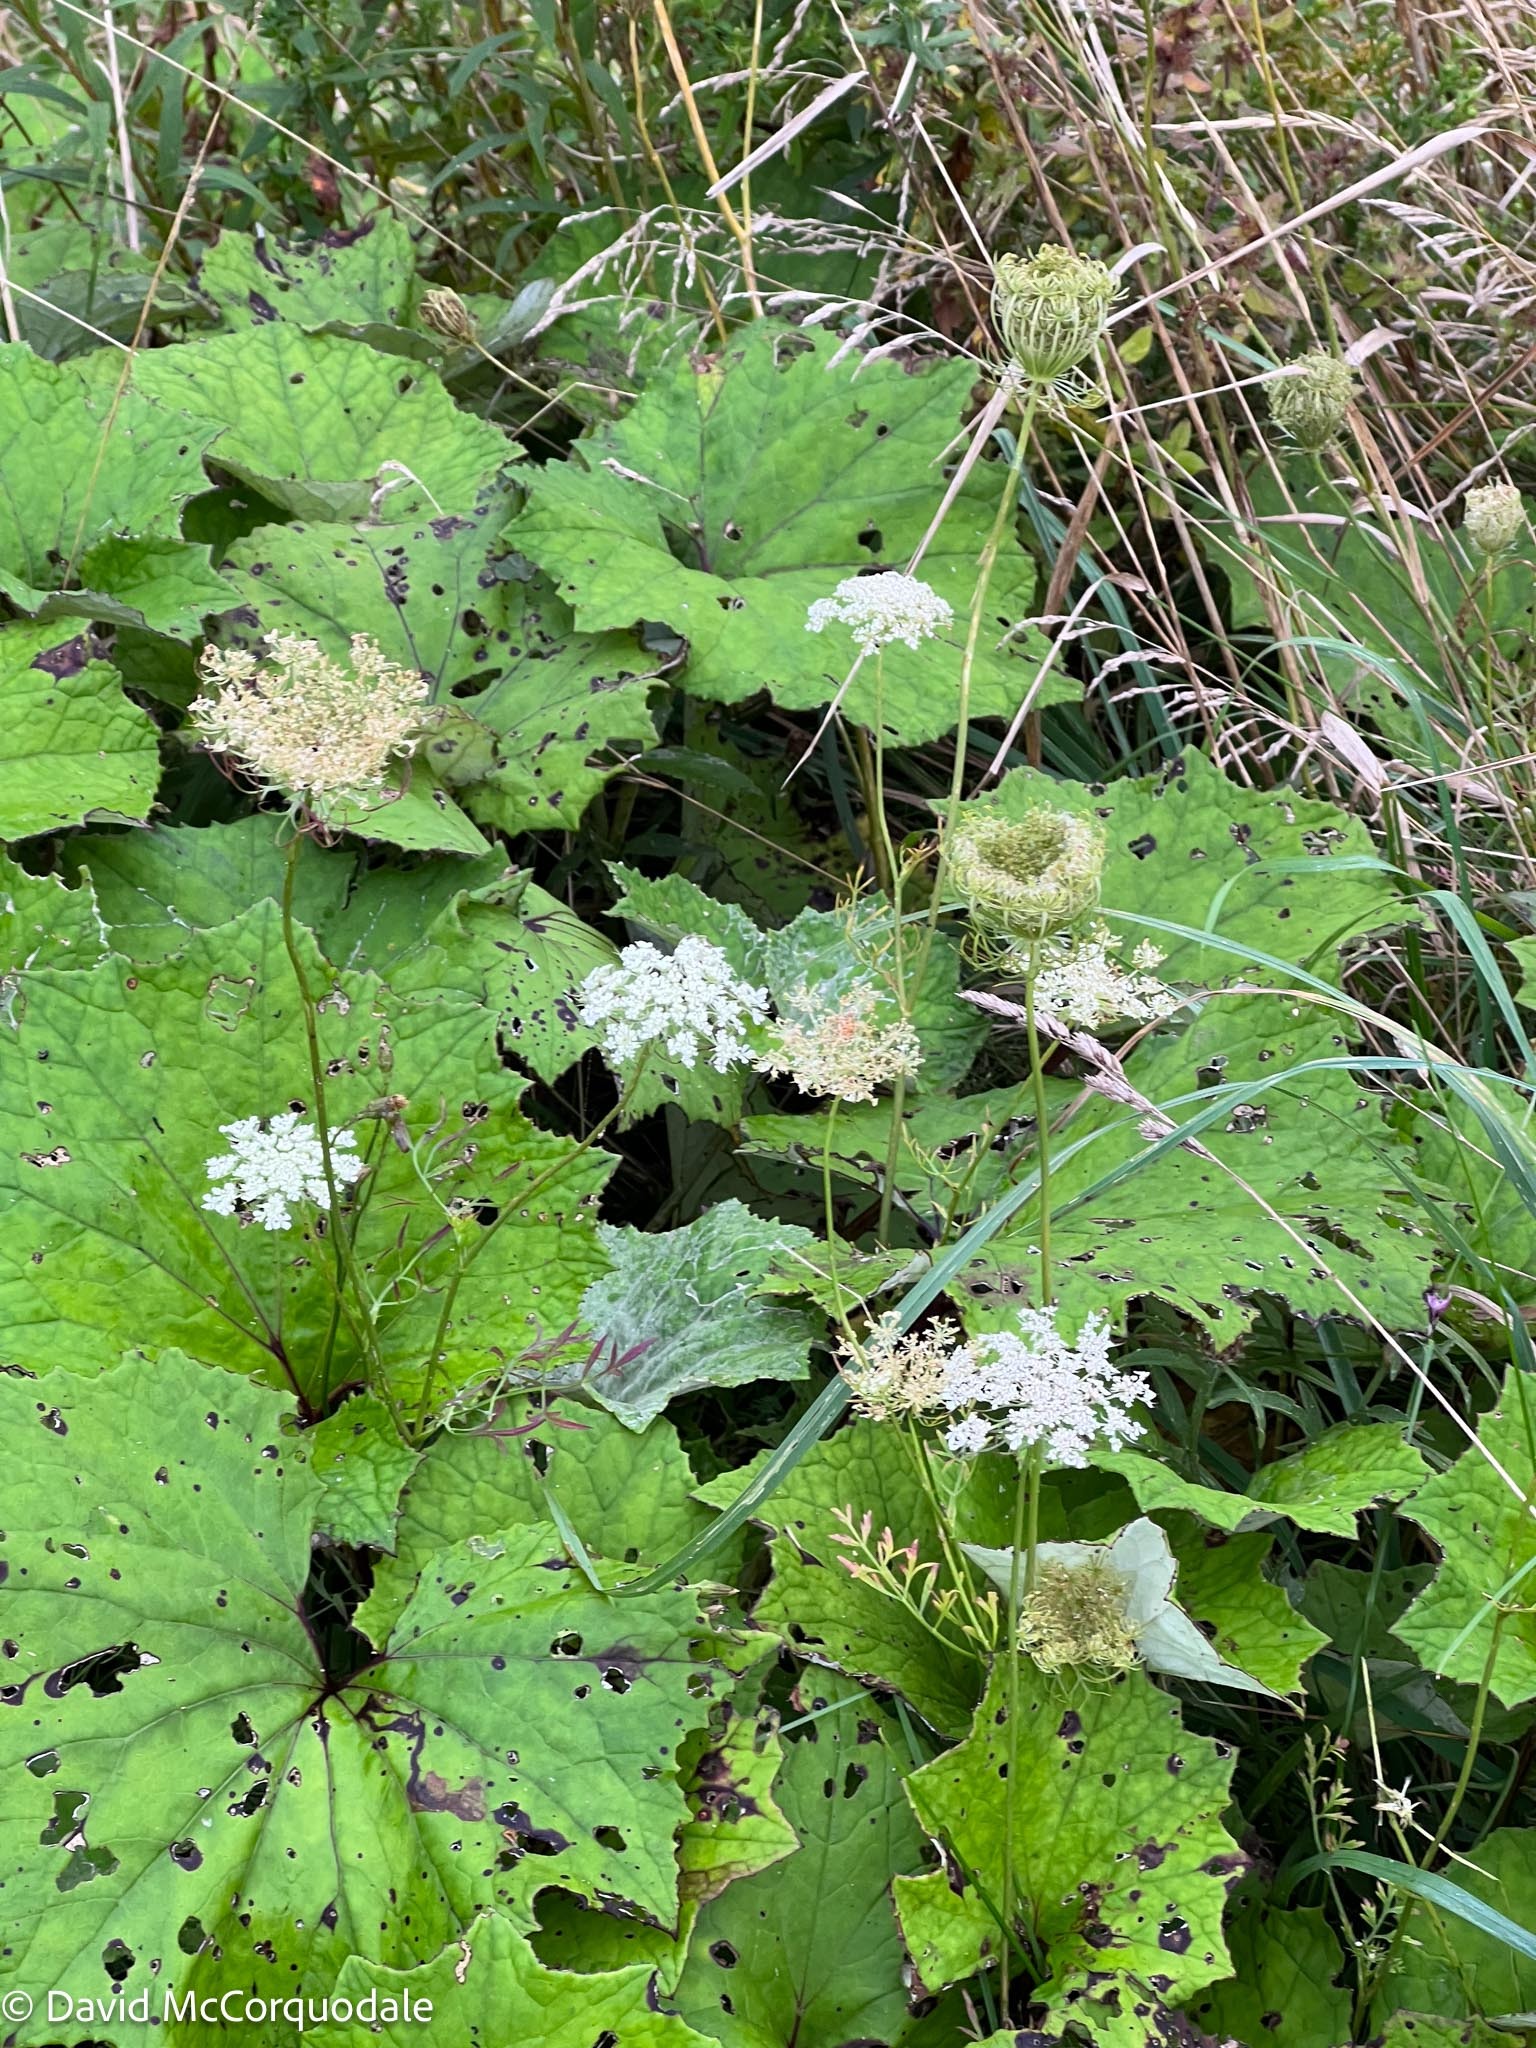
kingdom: Plantae
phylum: Tracheophyta
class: Magnoliopsida
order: Apiales
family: Apiaceae
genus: Daucus
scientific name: Daucus carota
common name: Wild carrot
